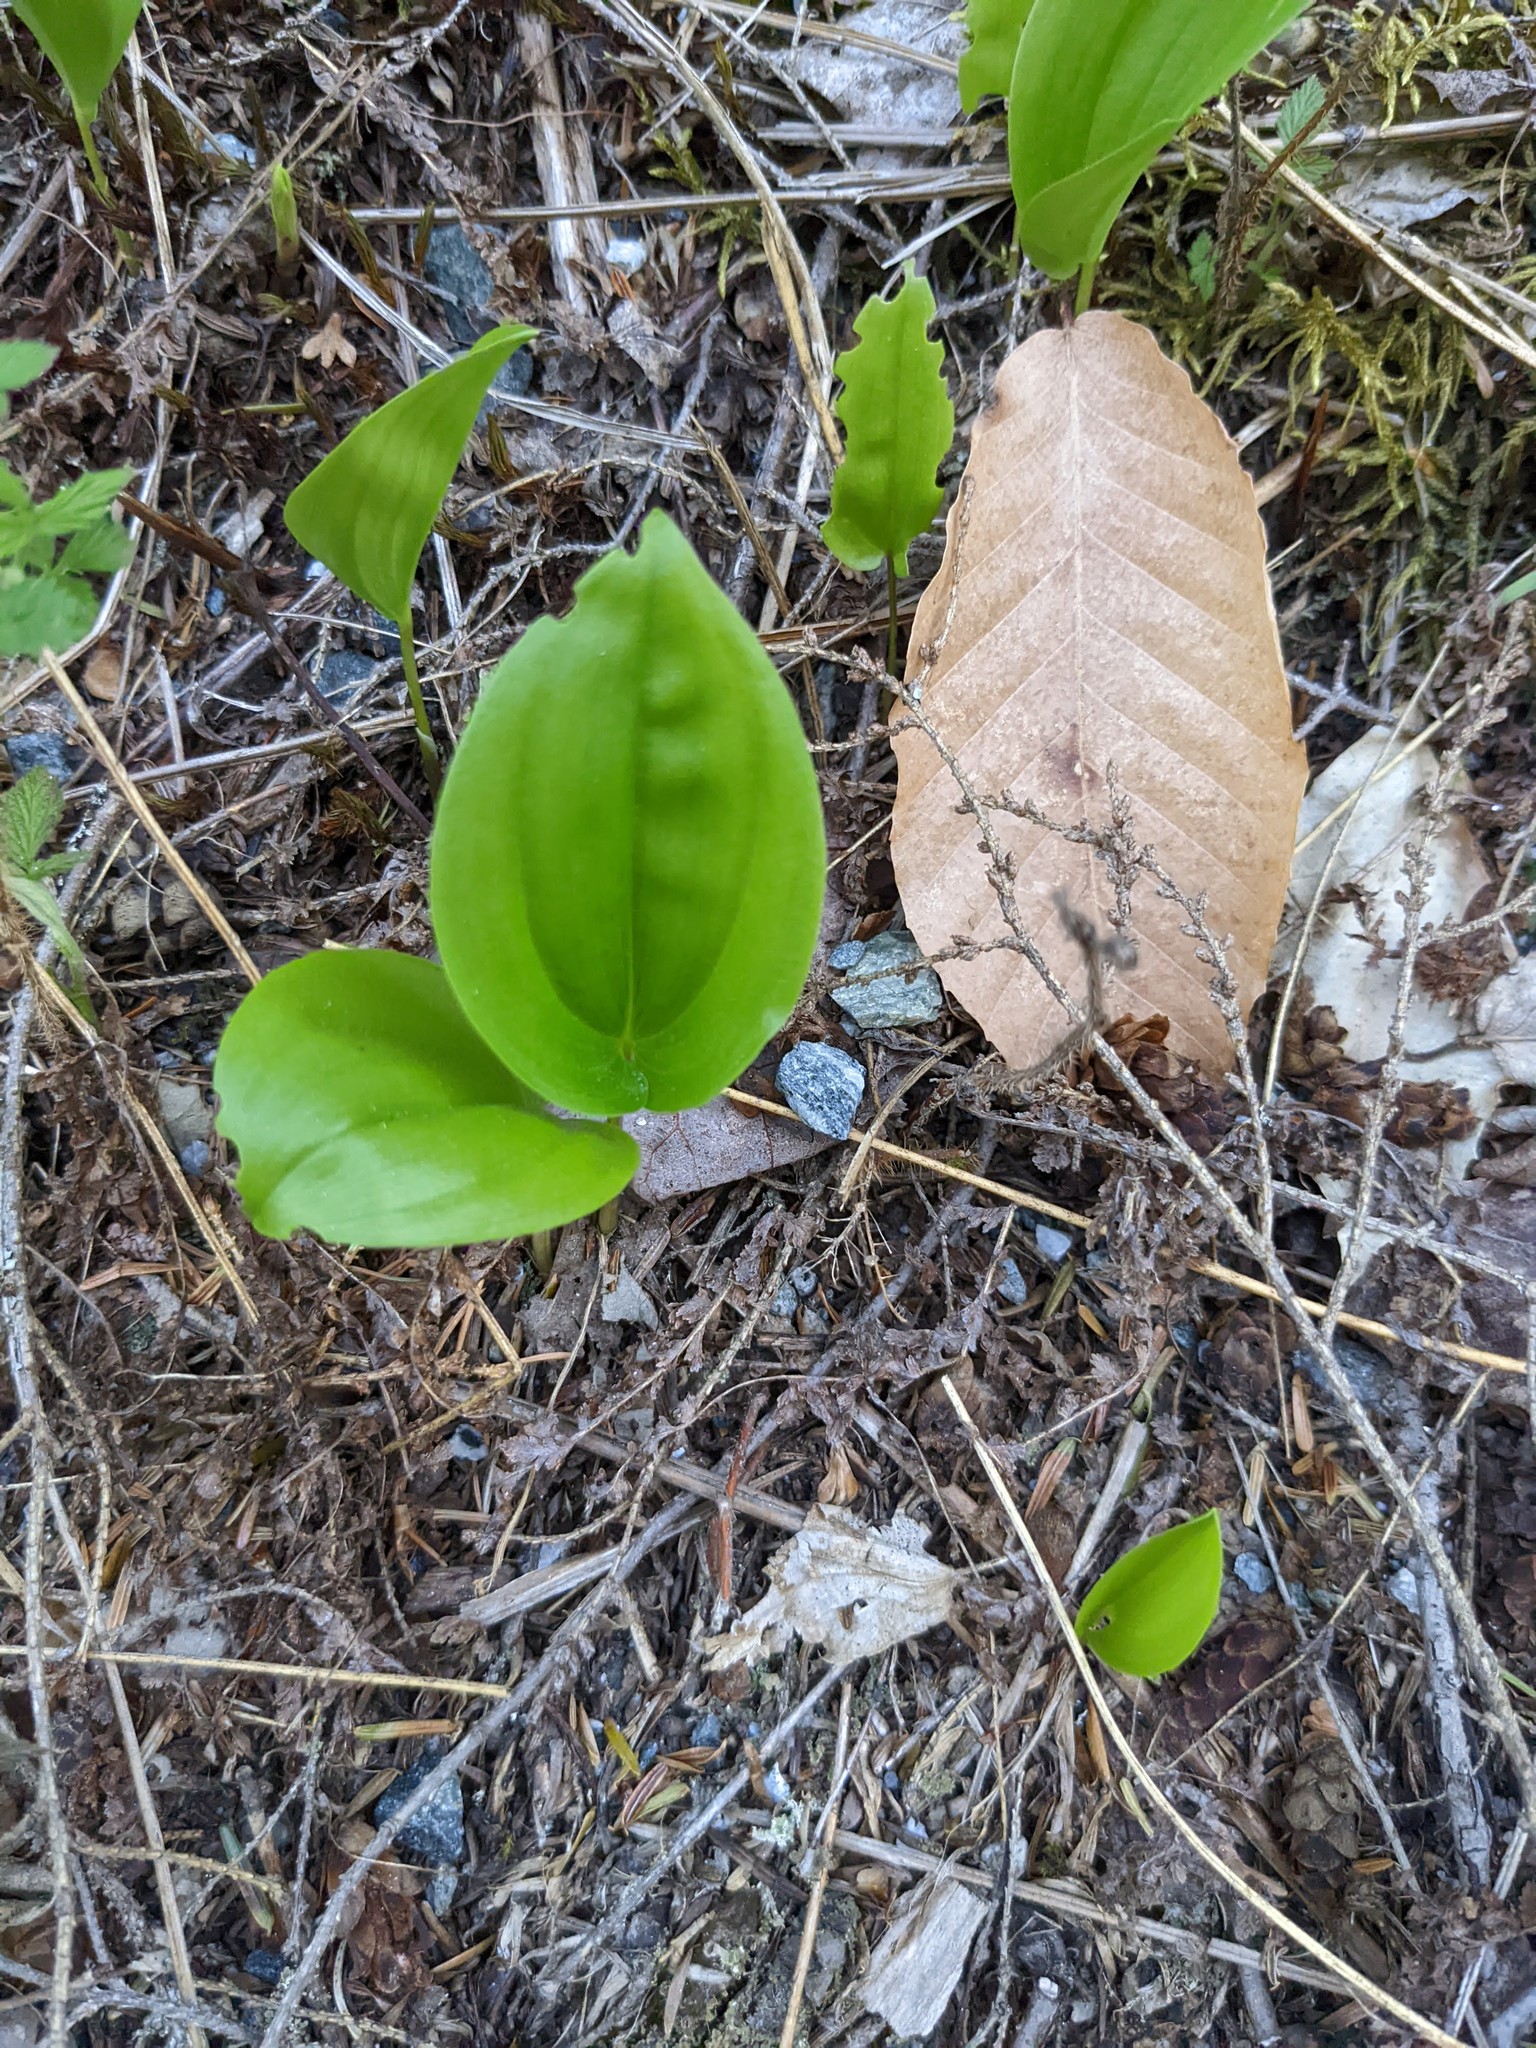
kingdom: Plantae
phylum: Tracheophyta
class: Liliopsida
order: Asparagales
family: Asparagaceae
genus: Maianthemum
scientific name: Maianthemum canadense
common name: False lily-of-the-valley
